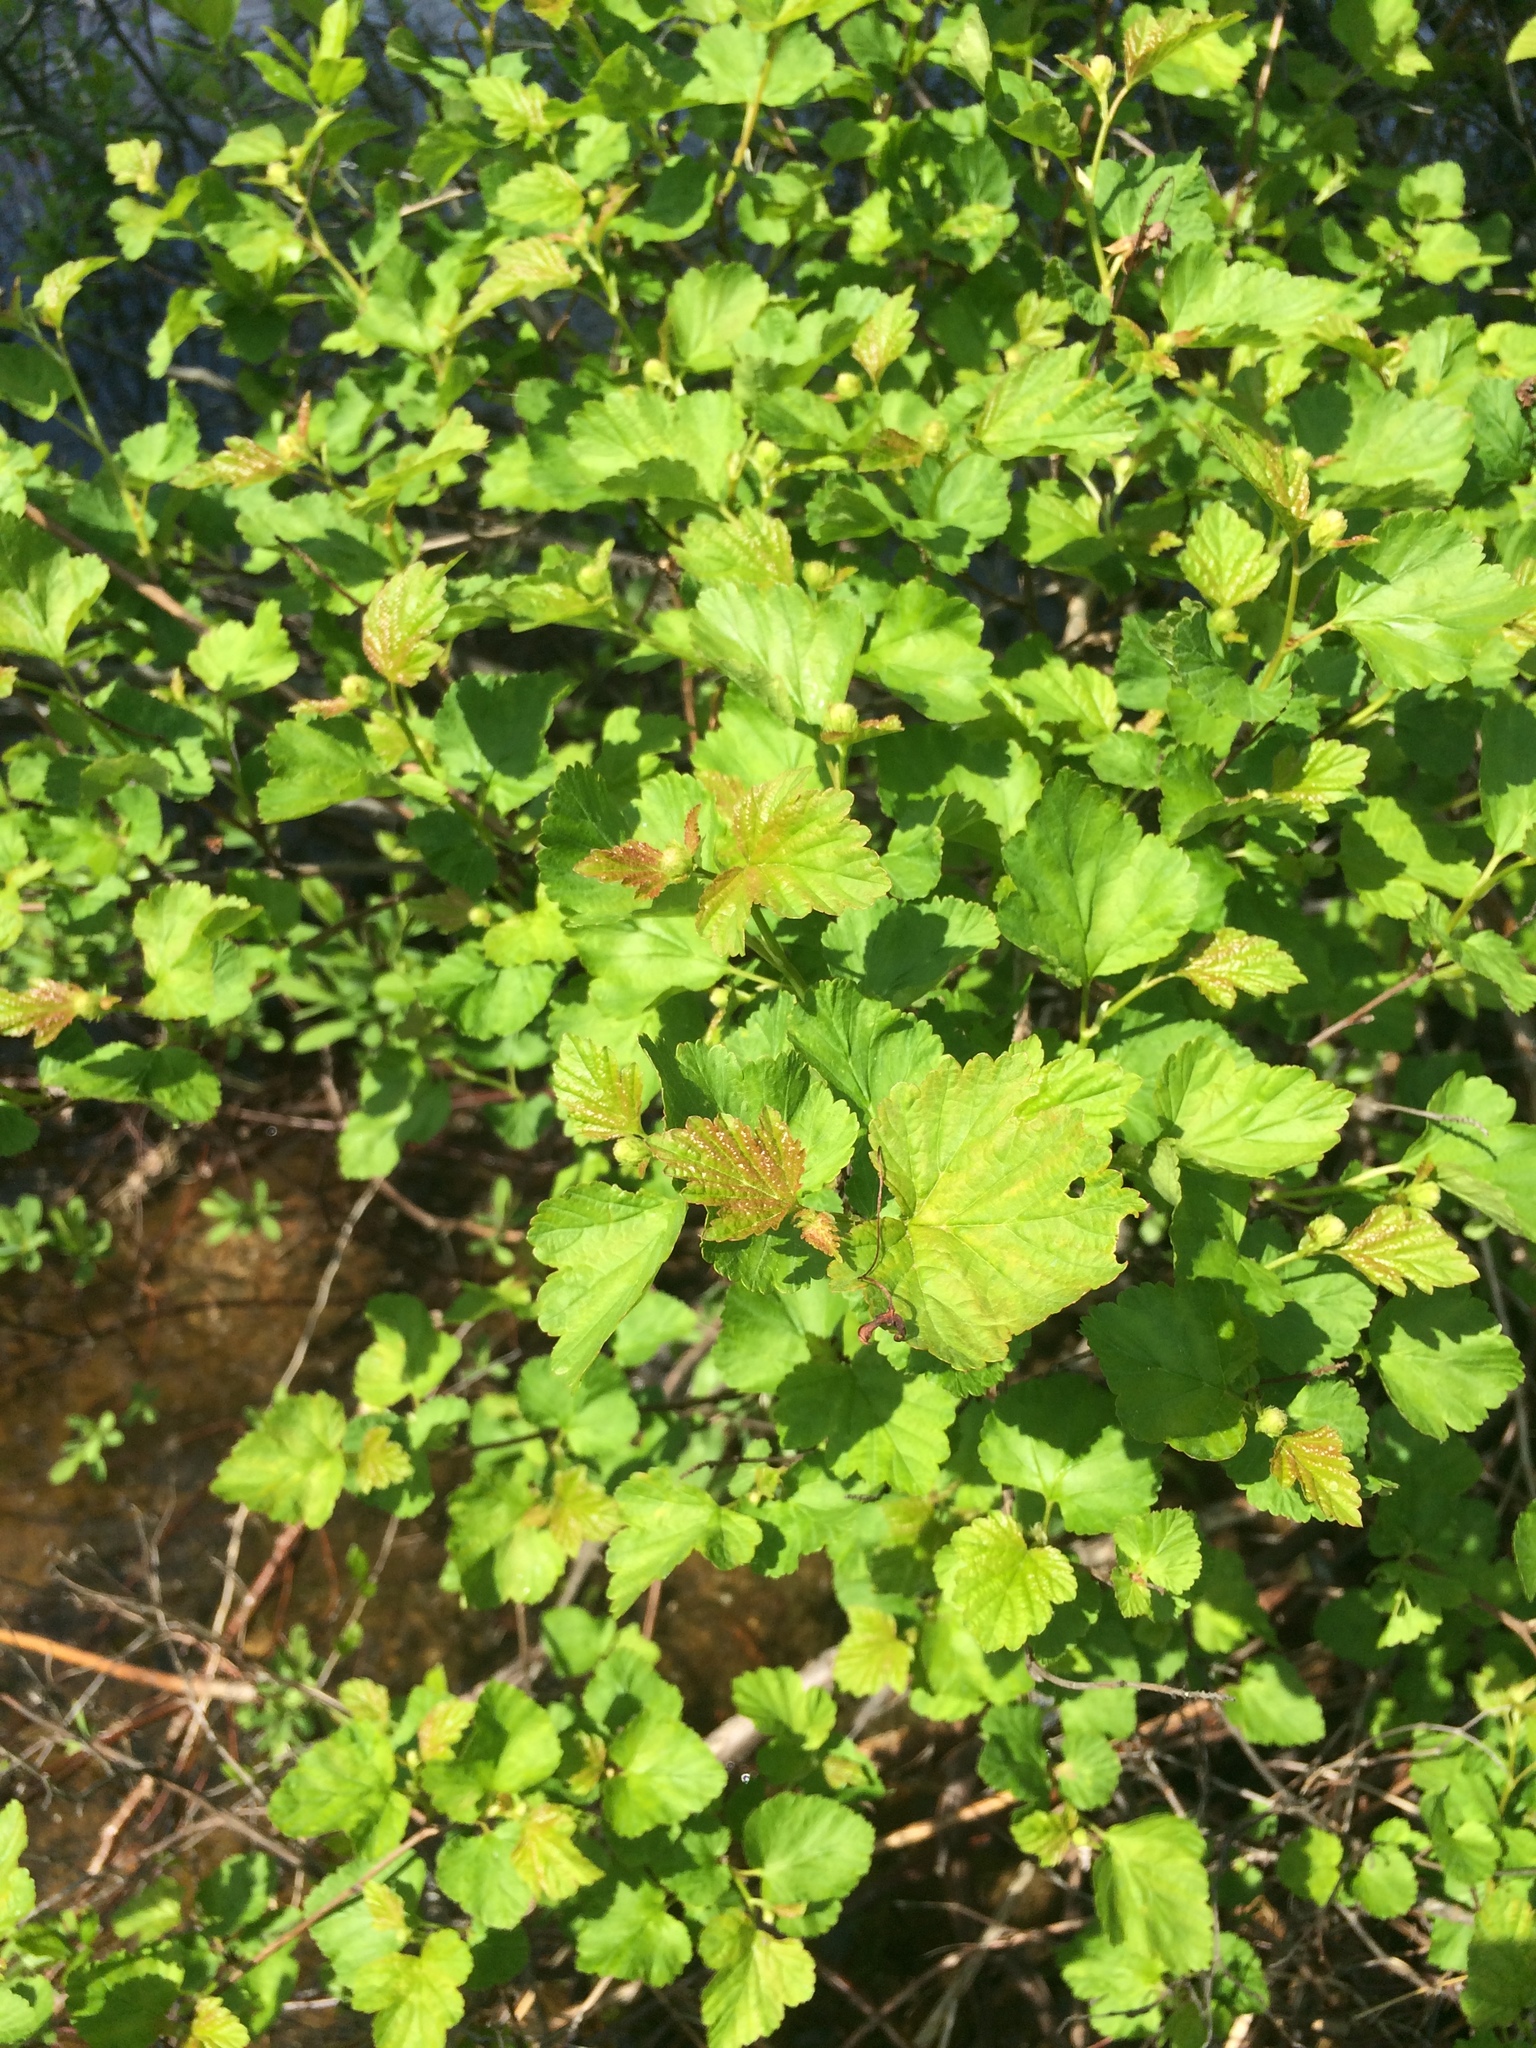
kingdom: Plantae
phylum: Tracheophyta
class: Magnoliopsida
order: Rosales
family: Rosaceae
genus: Physocarpus
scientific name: Physocarpus opulifolius
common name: Ninebark
